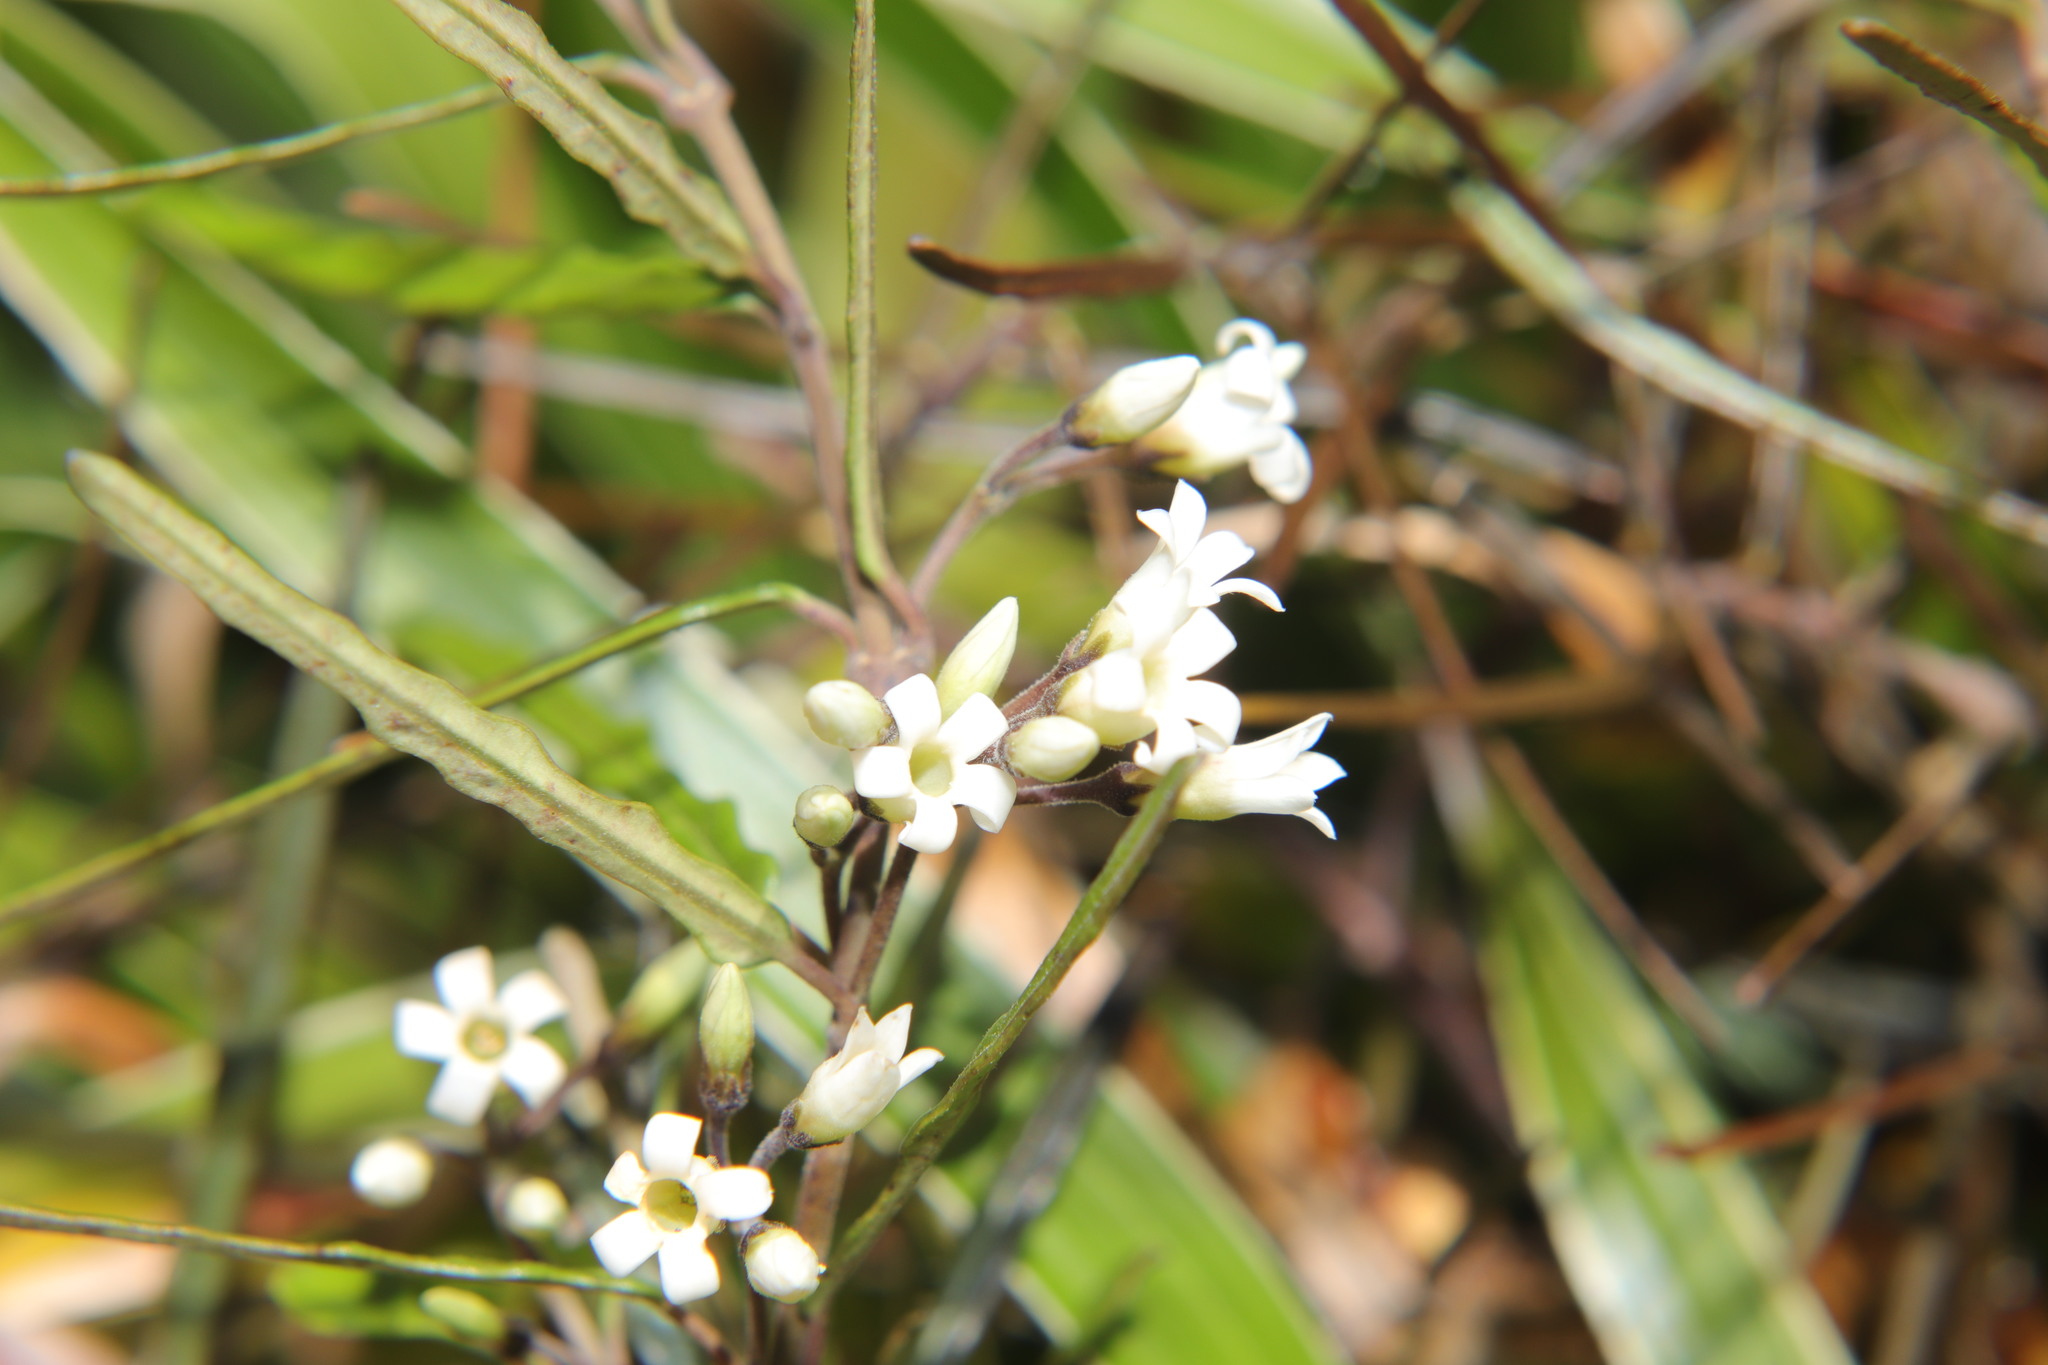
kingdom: Plantae
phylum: Tracheophyta
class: Magnoliopsida
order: Gentianales
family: Apocynaceae
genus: Parsonsia
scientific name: Parsonsia heterophylla
